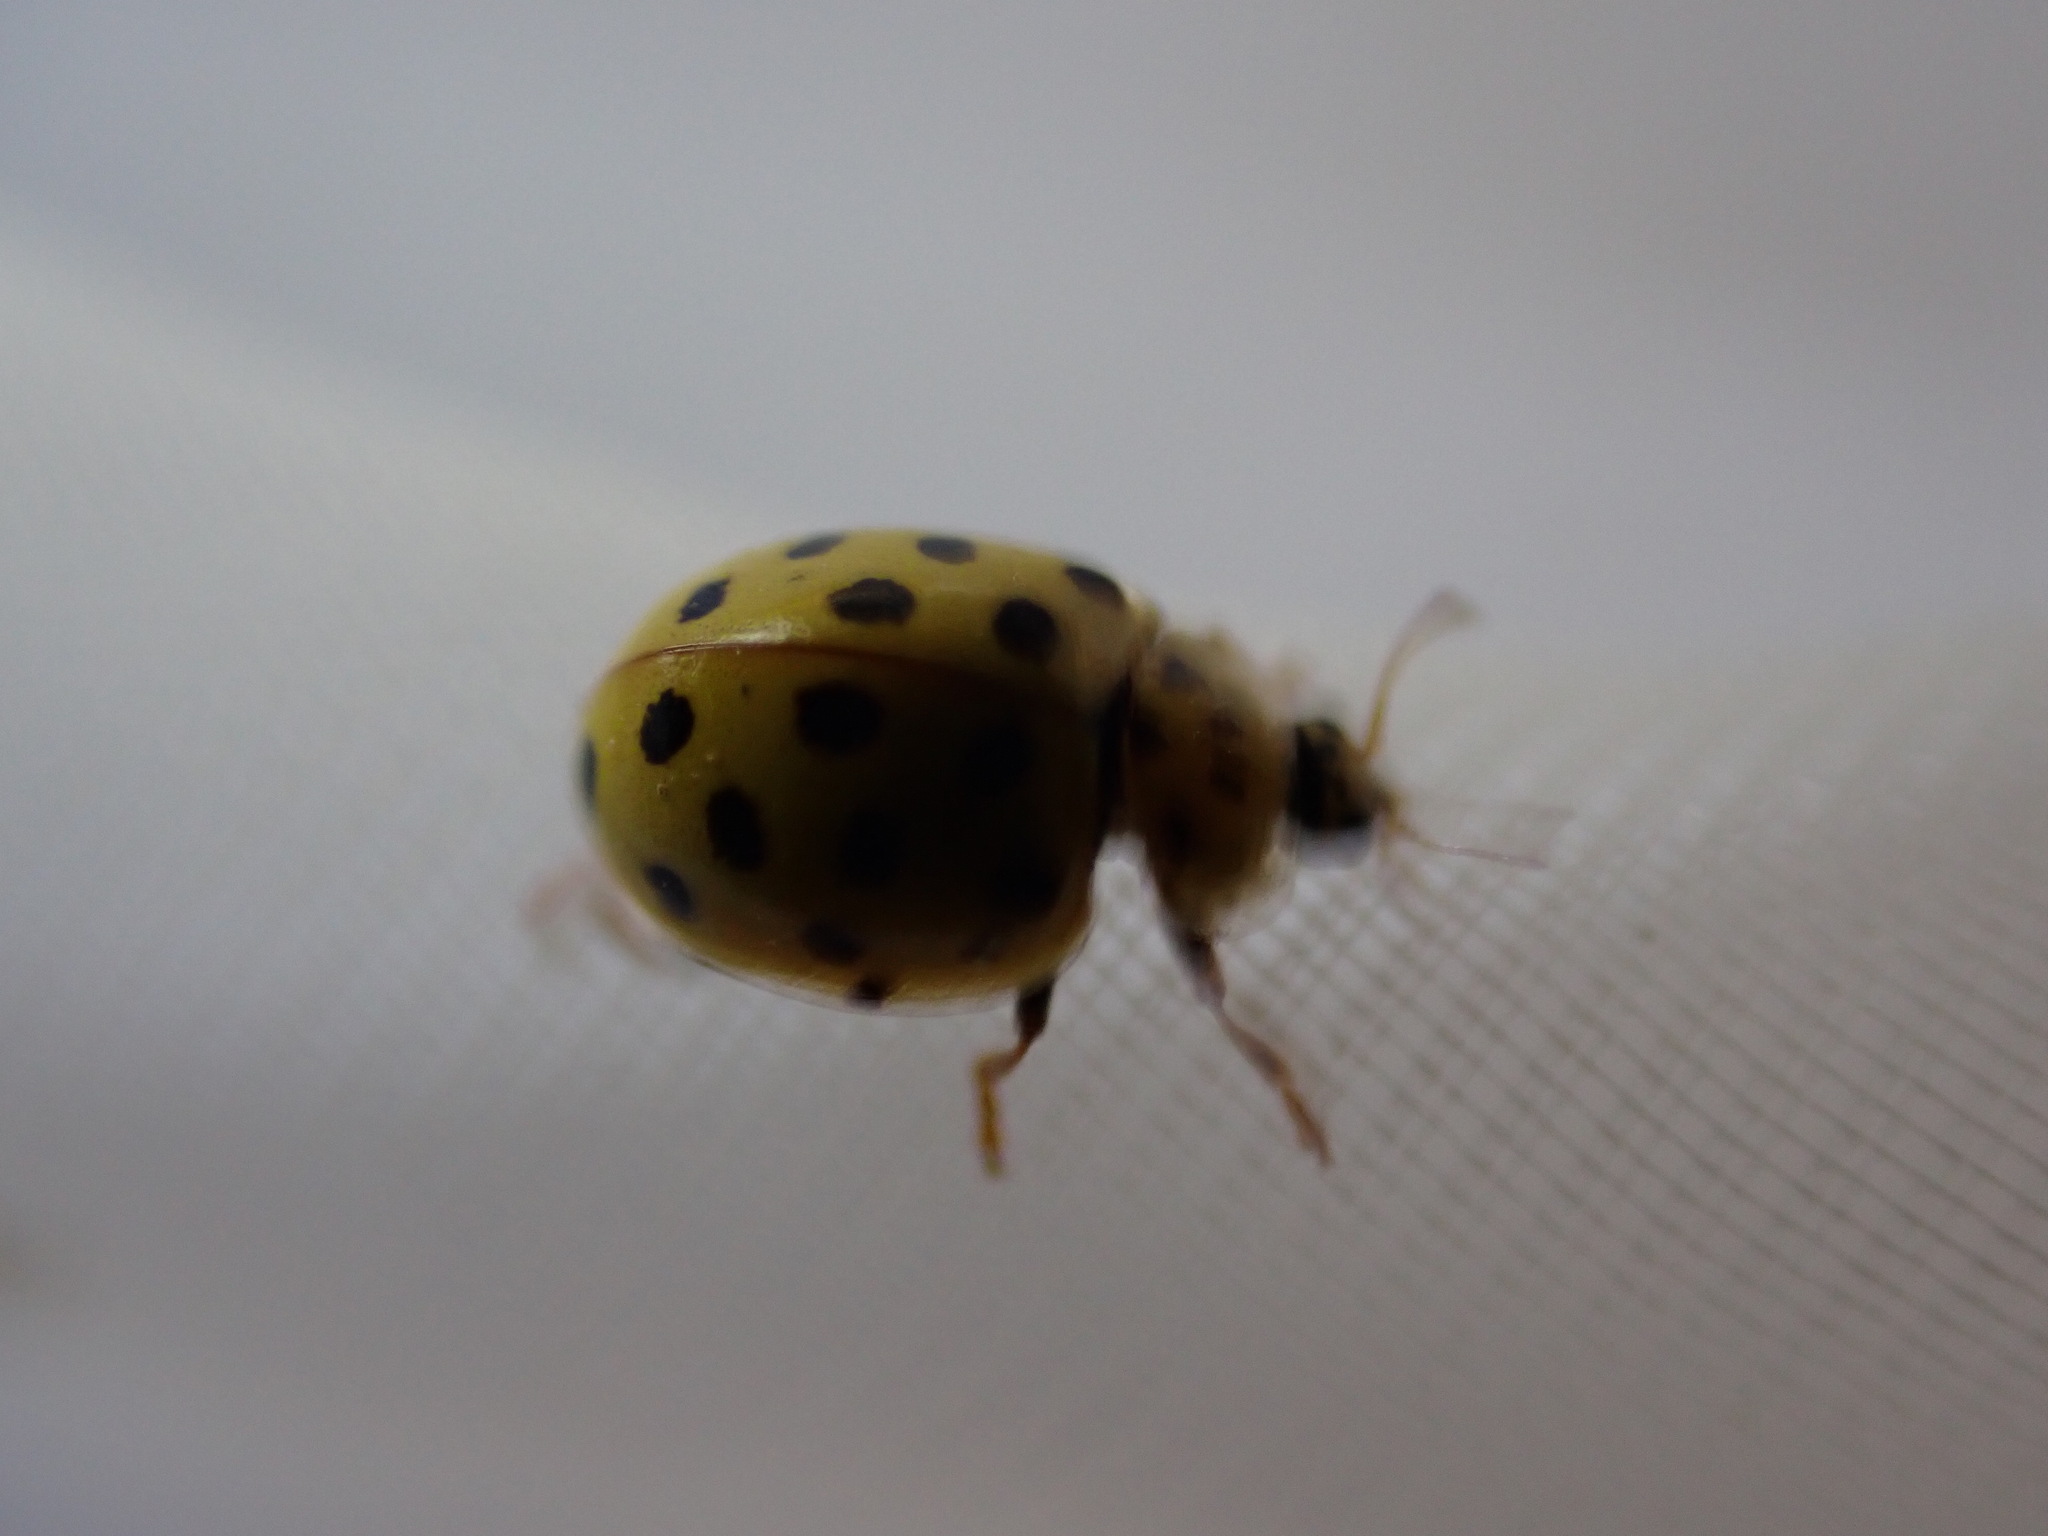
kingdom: Animalia
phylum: Arthropoda
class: Insecta
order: Coleoptera
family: Coccinellidae
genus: Psyllobora
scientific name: Psyllobora vigintiduopunctata
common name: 22-spot ladybird
